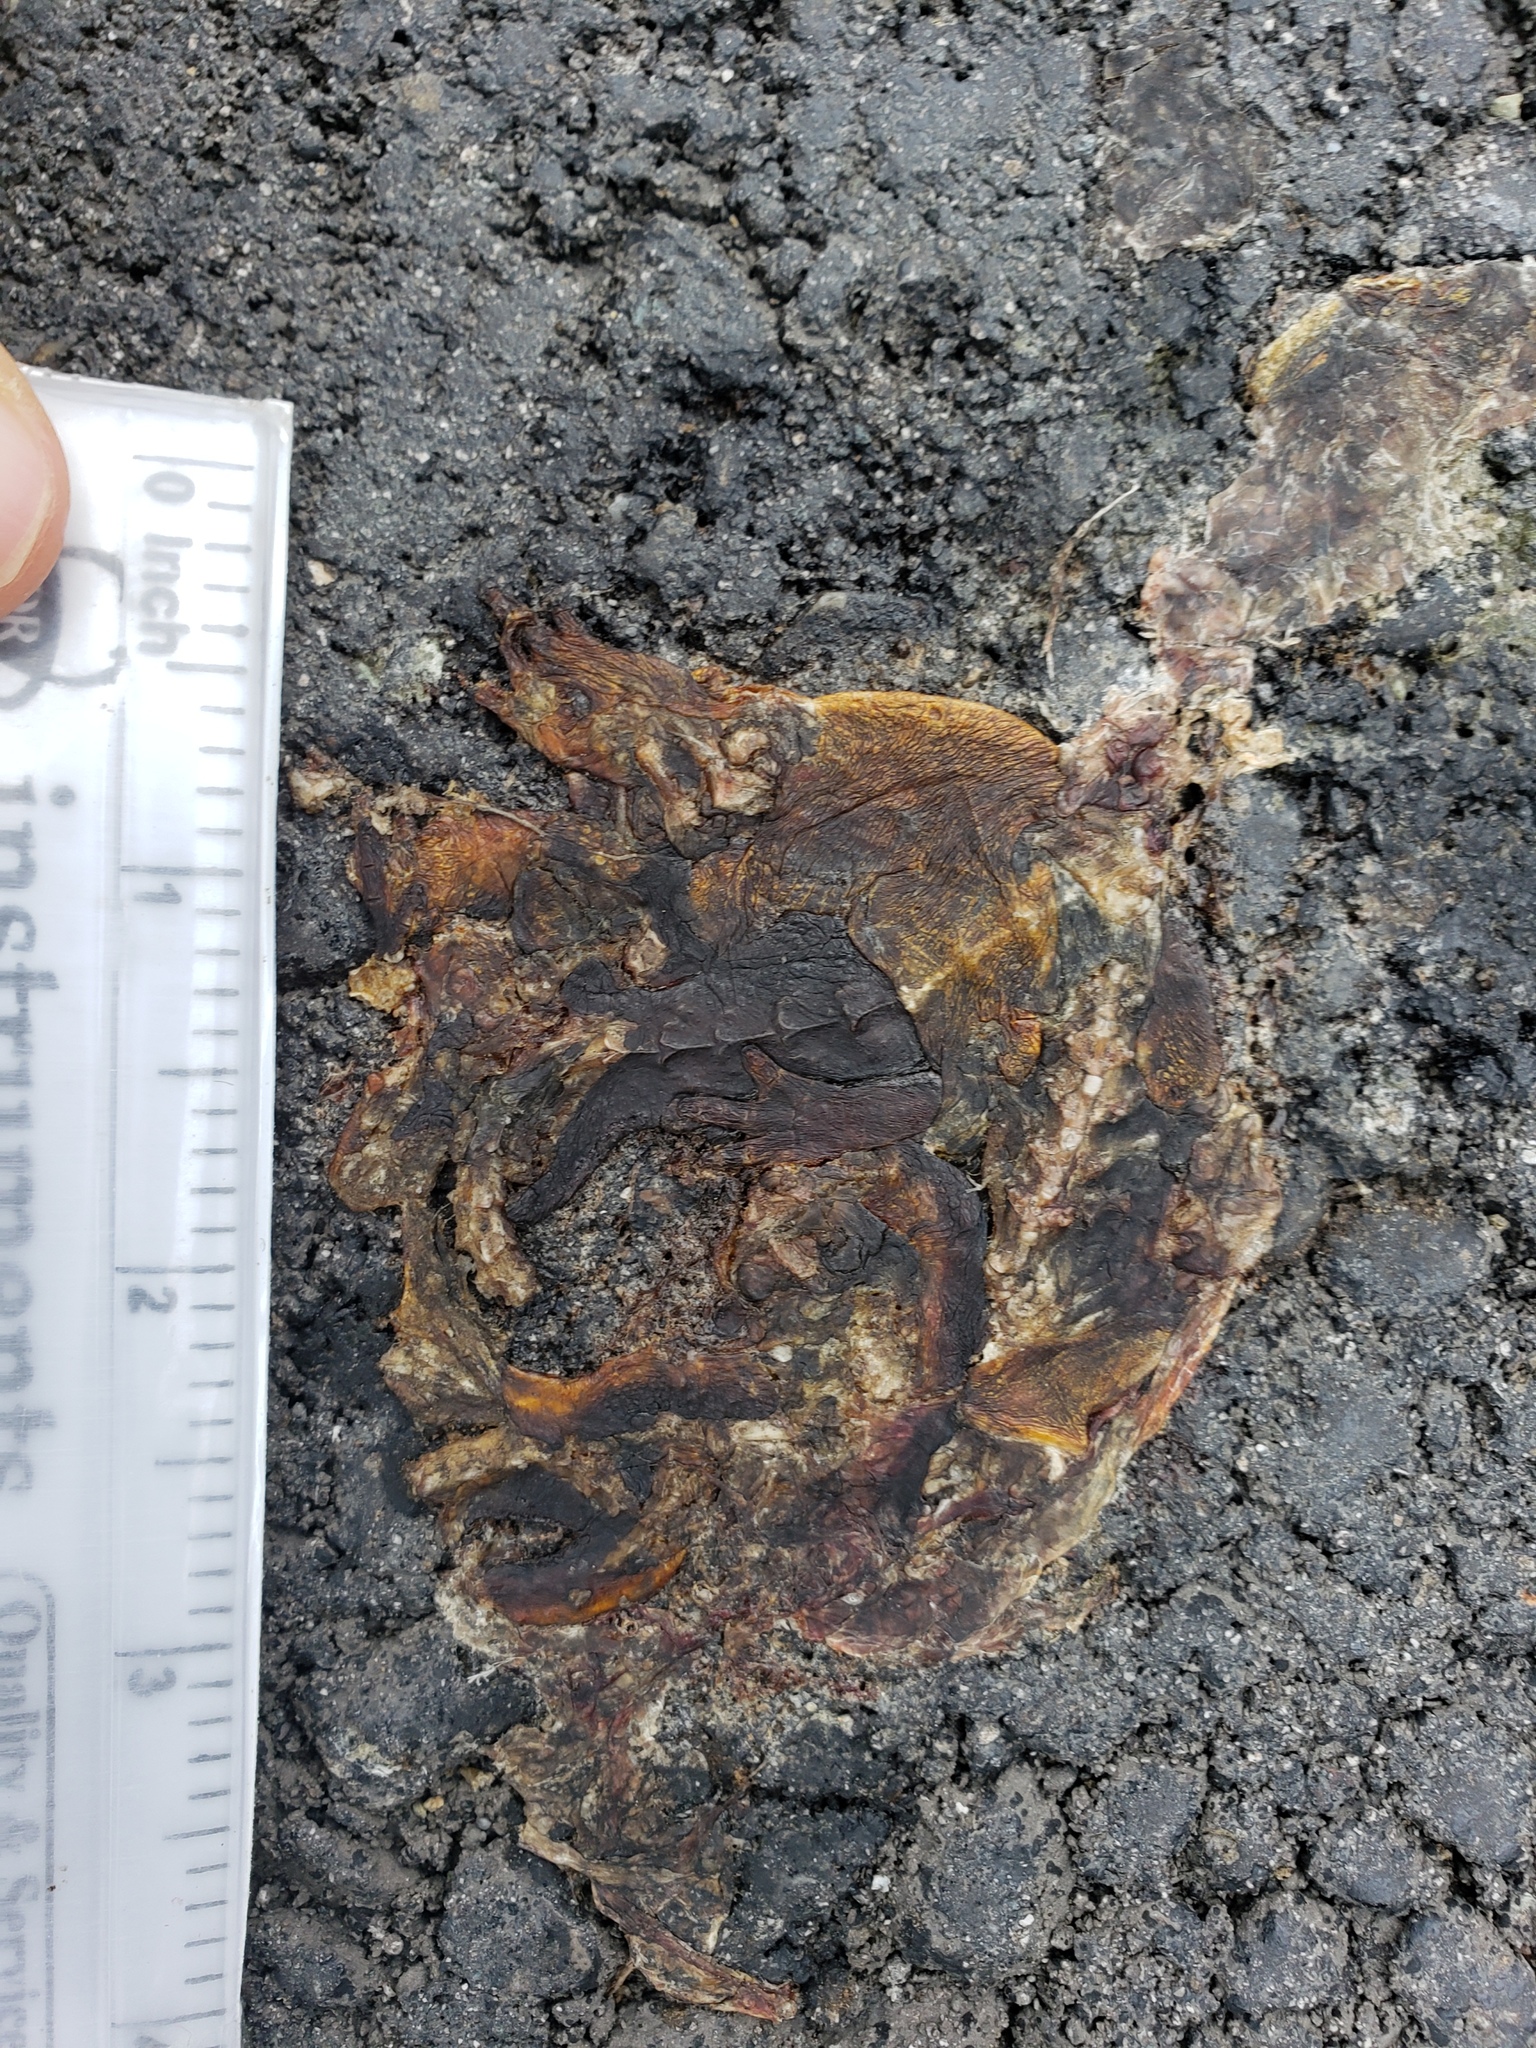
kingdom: Animalia
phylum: Chordata
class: Amphibia
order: Caudata
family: Salamandridae
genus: Taricha
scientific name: Taricha
